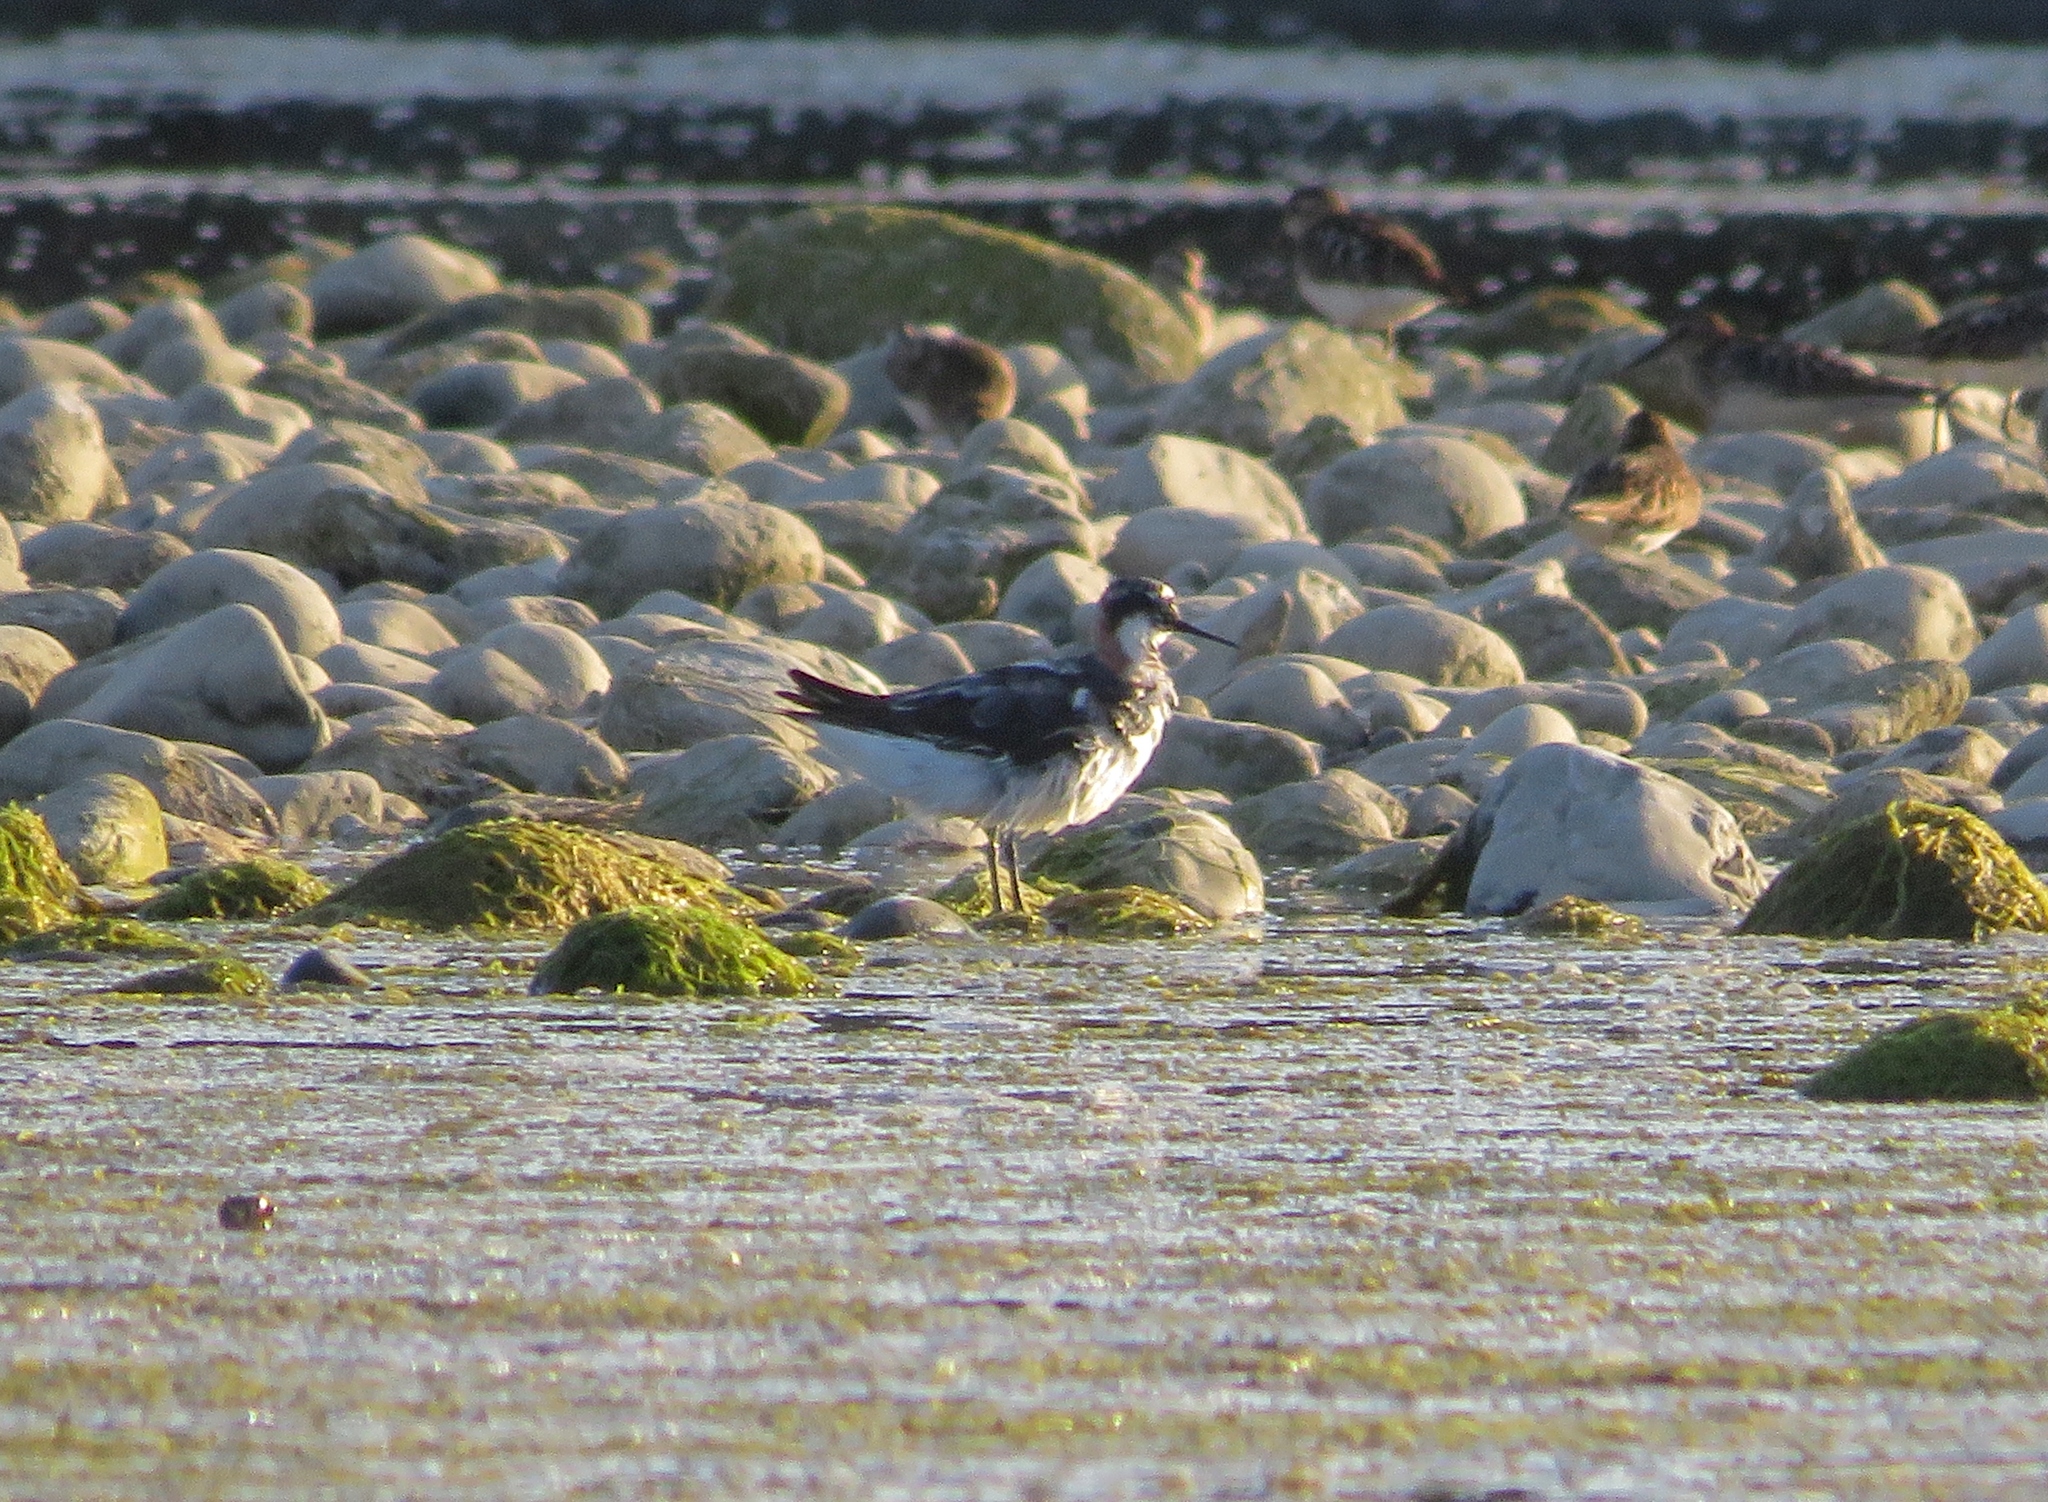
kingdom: Animalia
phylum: Chordata
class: Aves
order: Charadriiformes
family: Scolopacidae
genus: Phalaropus
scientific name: Phalaropus lobatus
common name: Red-necked phalarope
